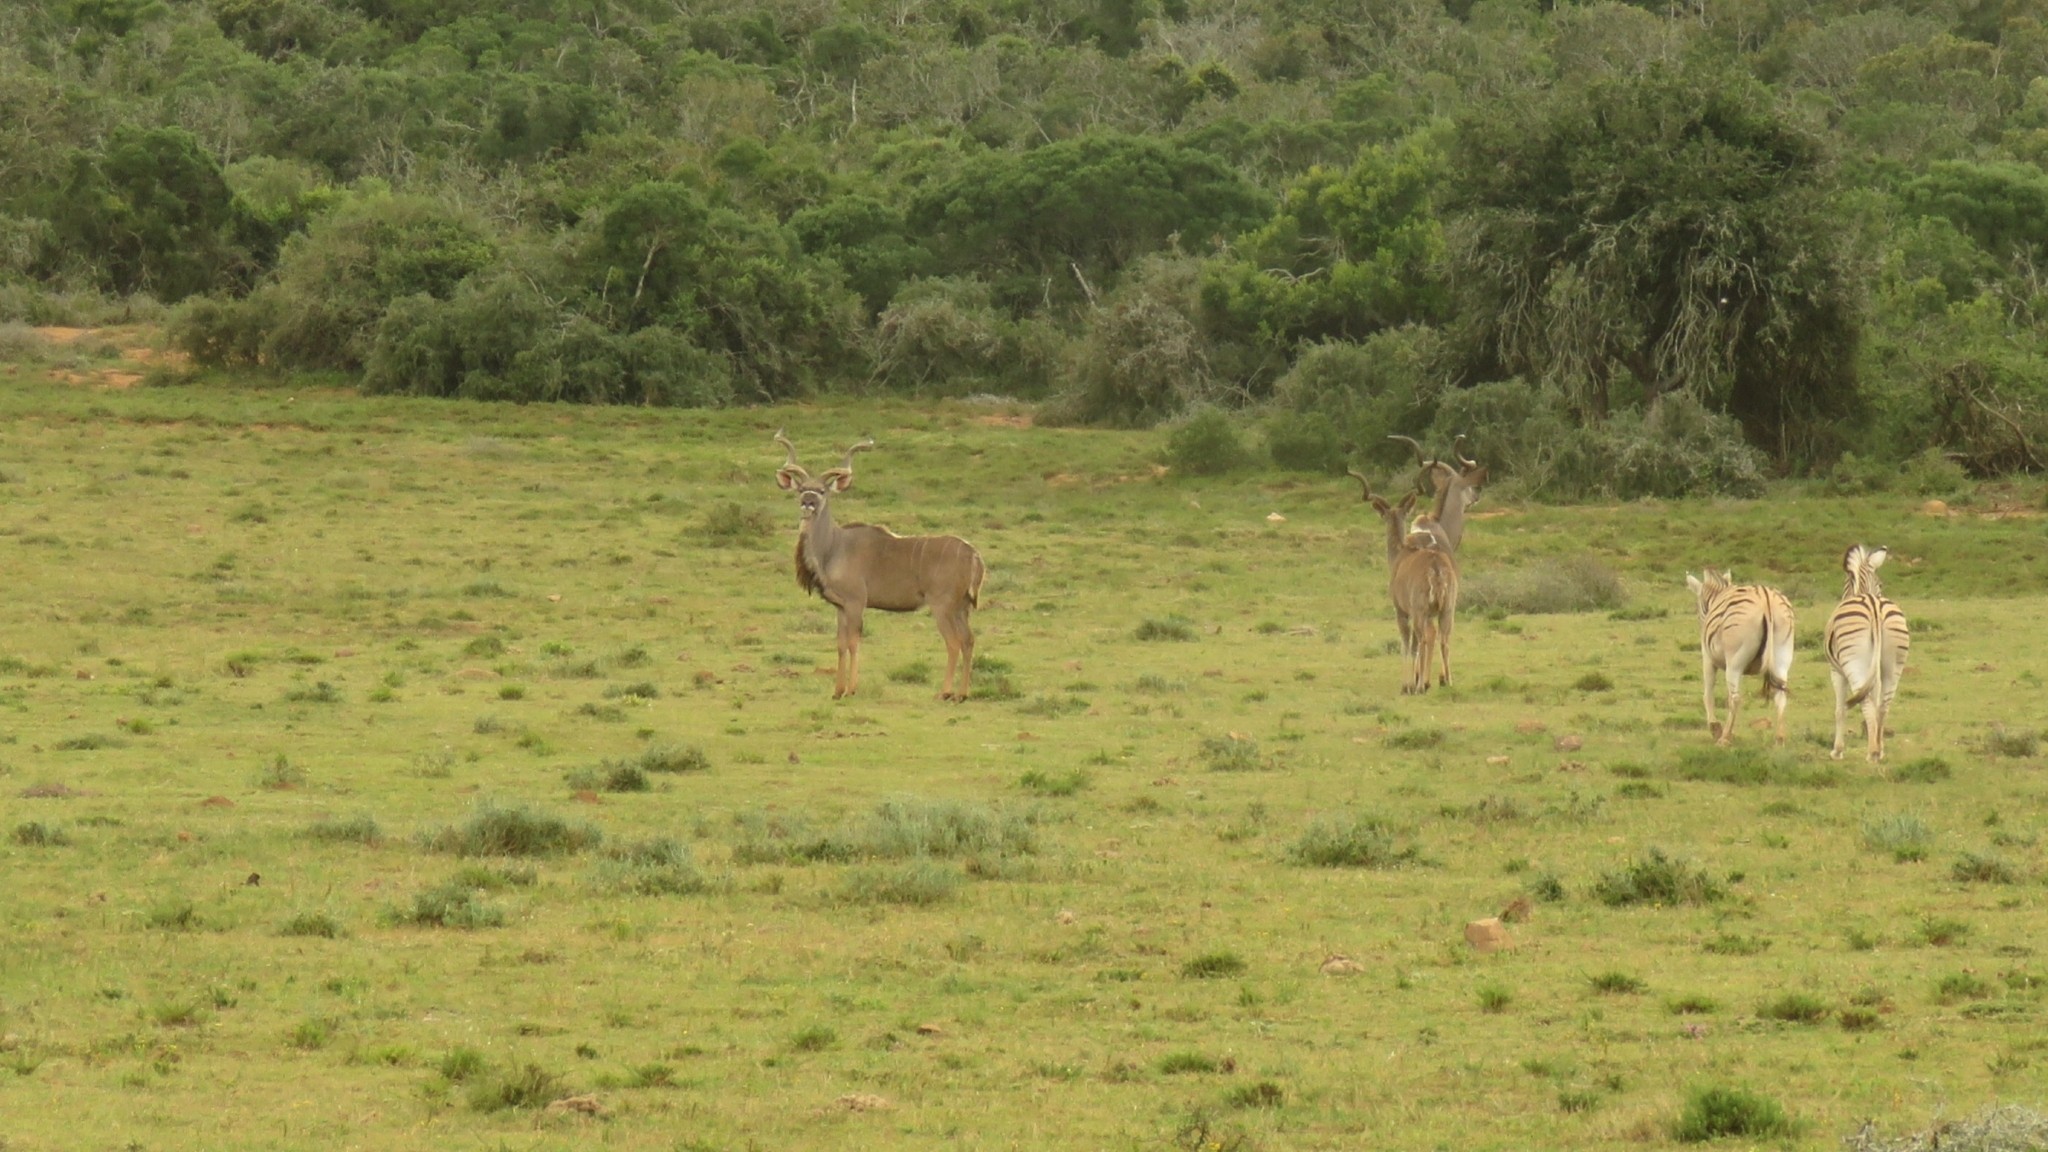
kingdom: Animalia
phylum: Chordata
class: Mammalia
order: Artiodactyla
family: Bovidae
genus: Tragelaphus
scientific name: Tragelaphus strepsiceros
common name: Greater kudu
